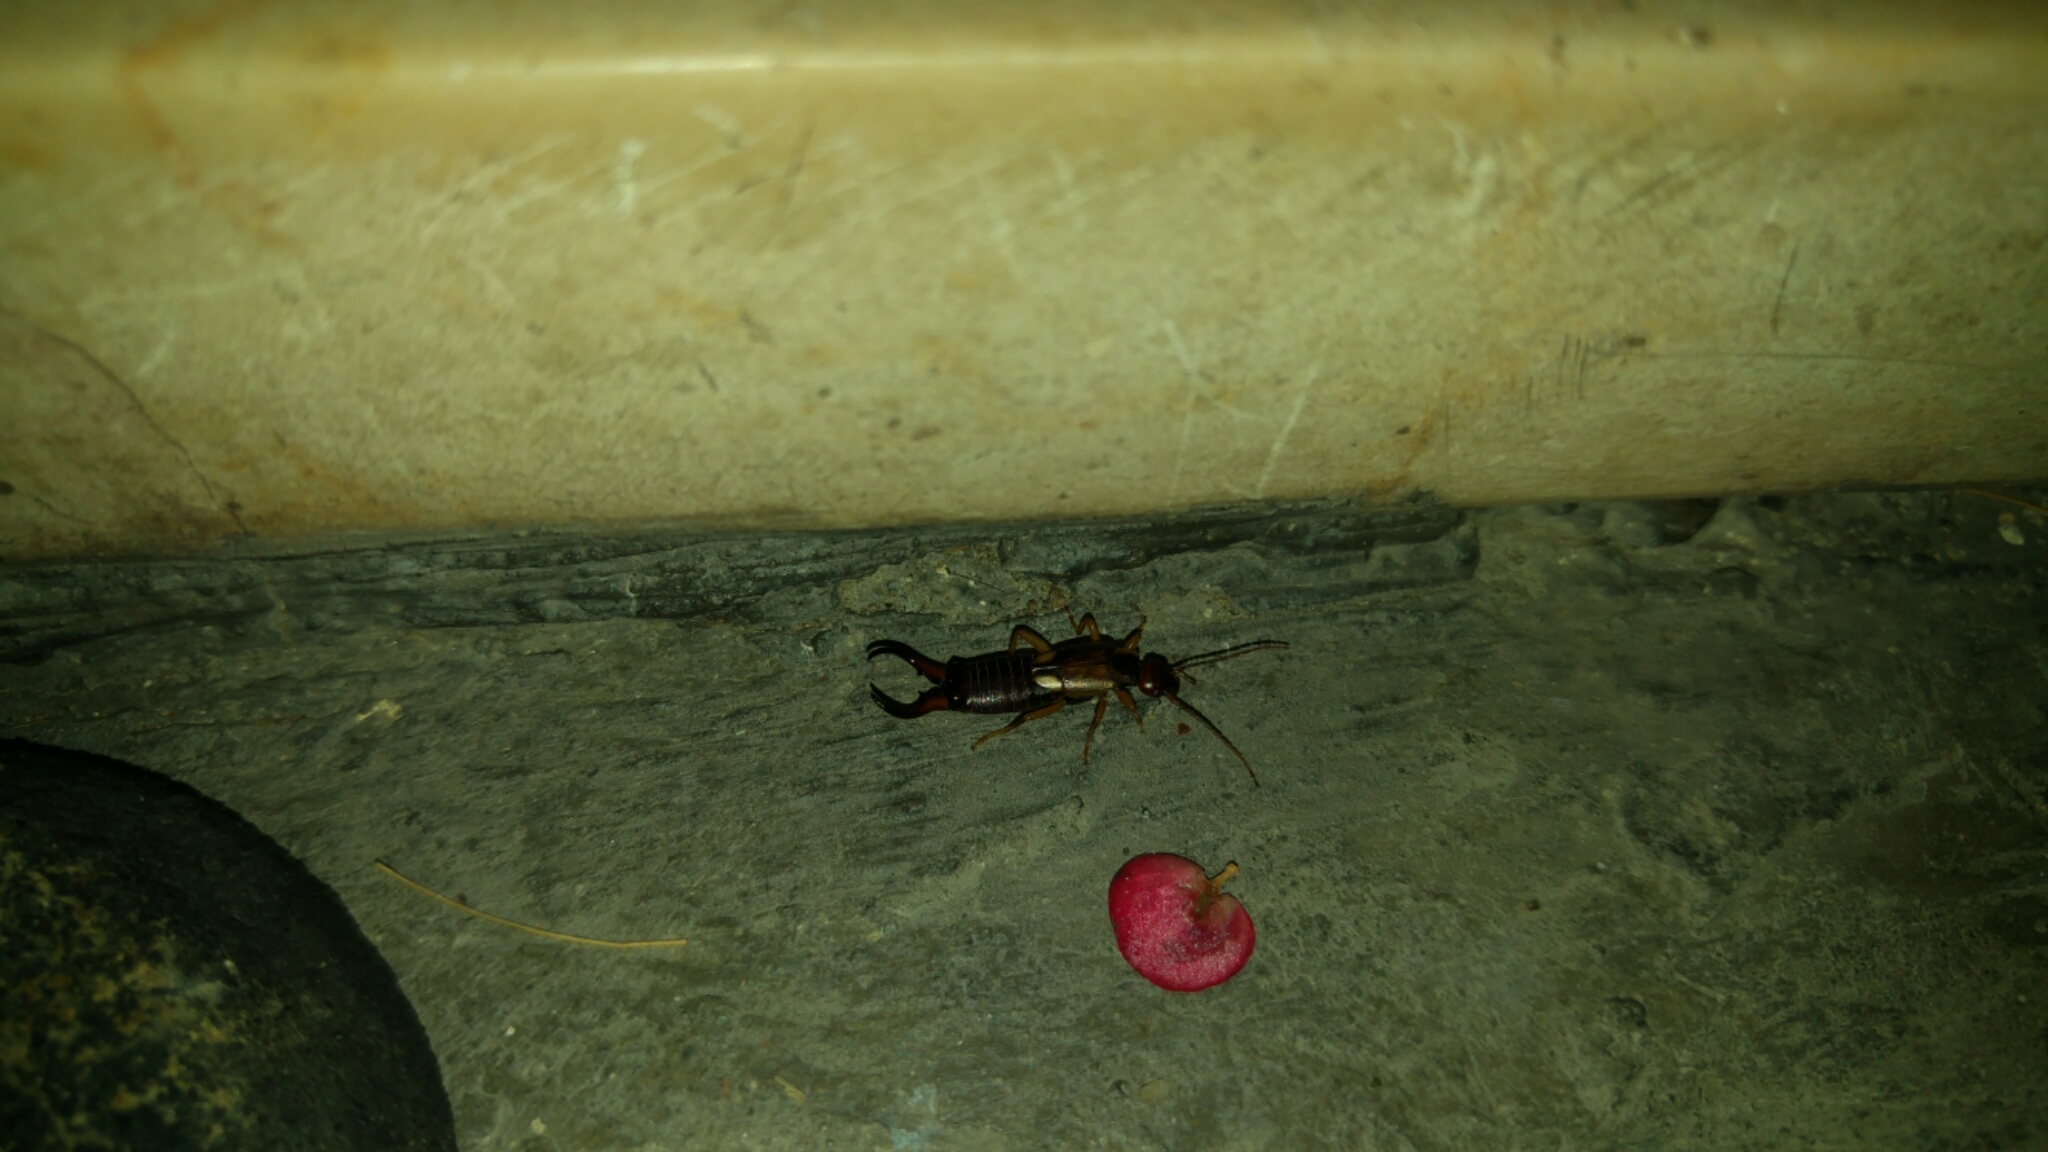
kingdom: Animalia
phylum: Arthropoda
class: Insecta
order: Dermaptera
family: Forficulidae
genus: Forficula
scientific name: Forficula
